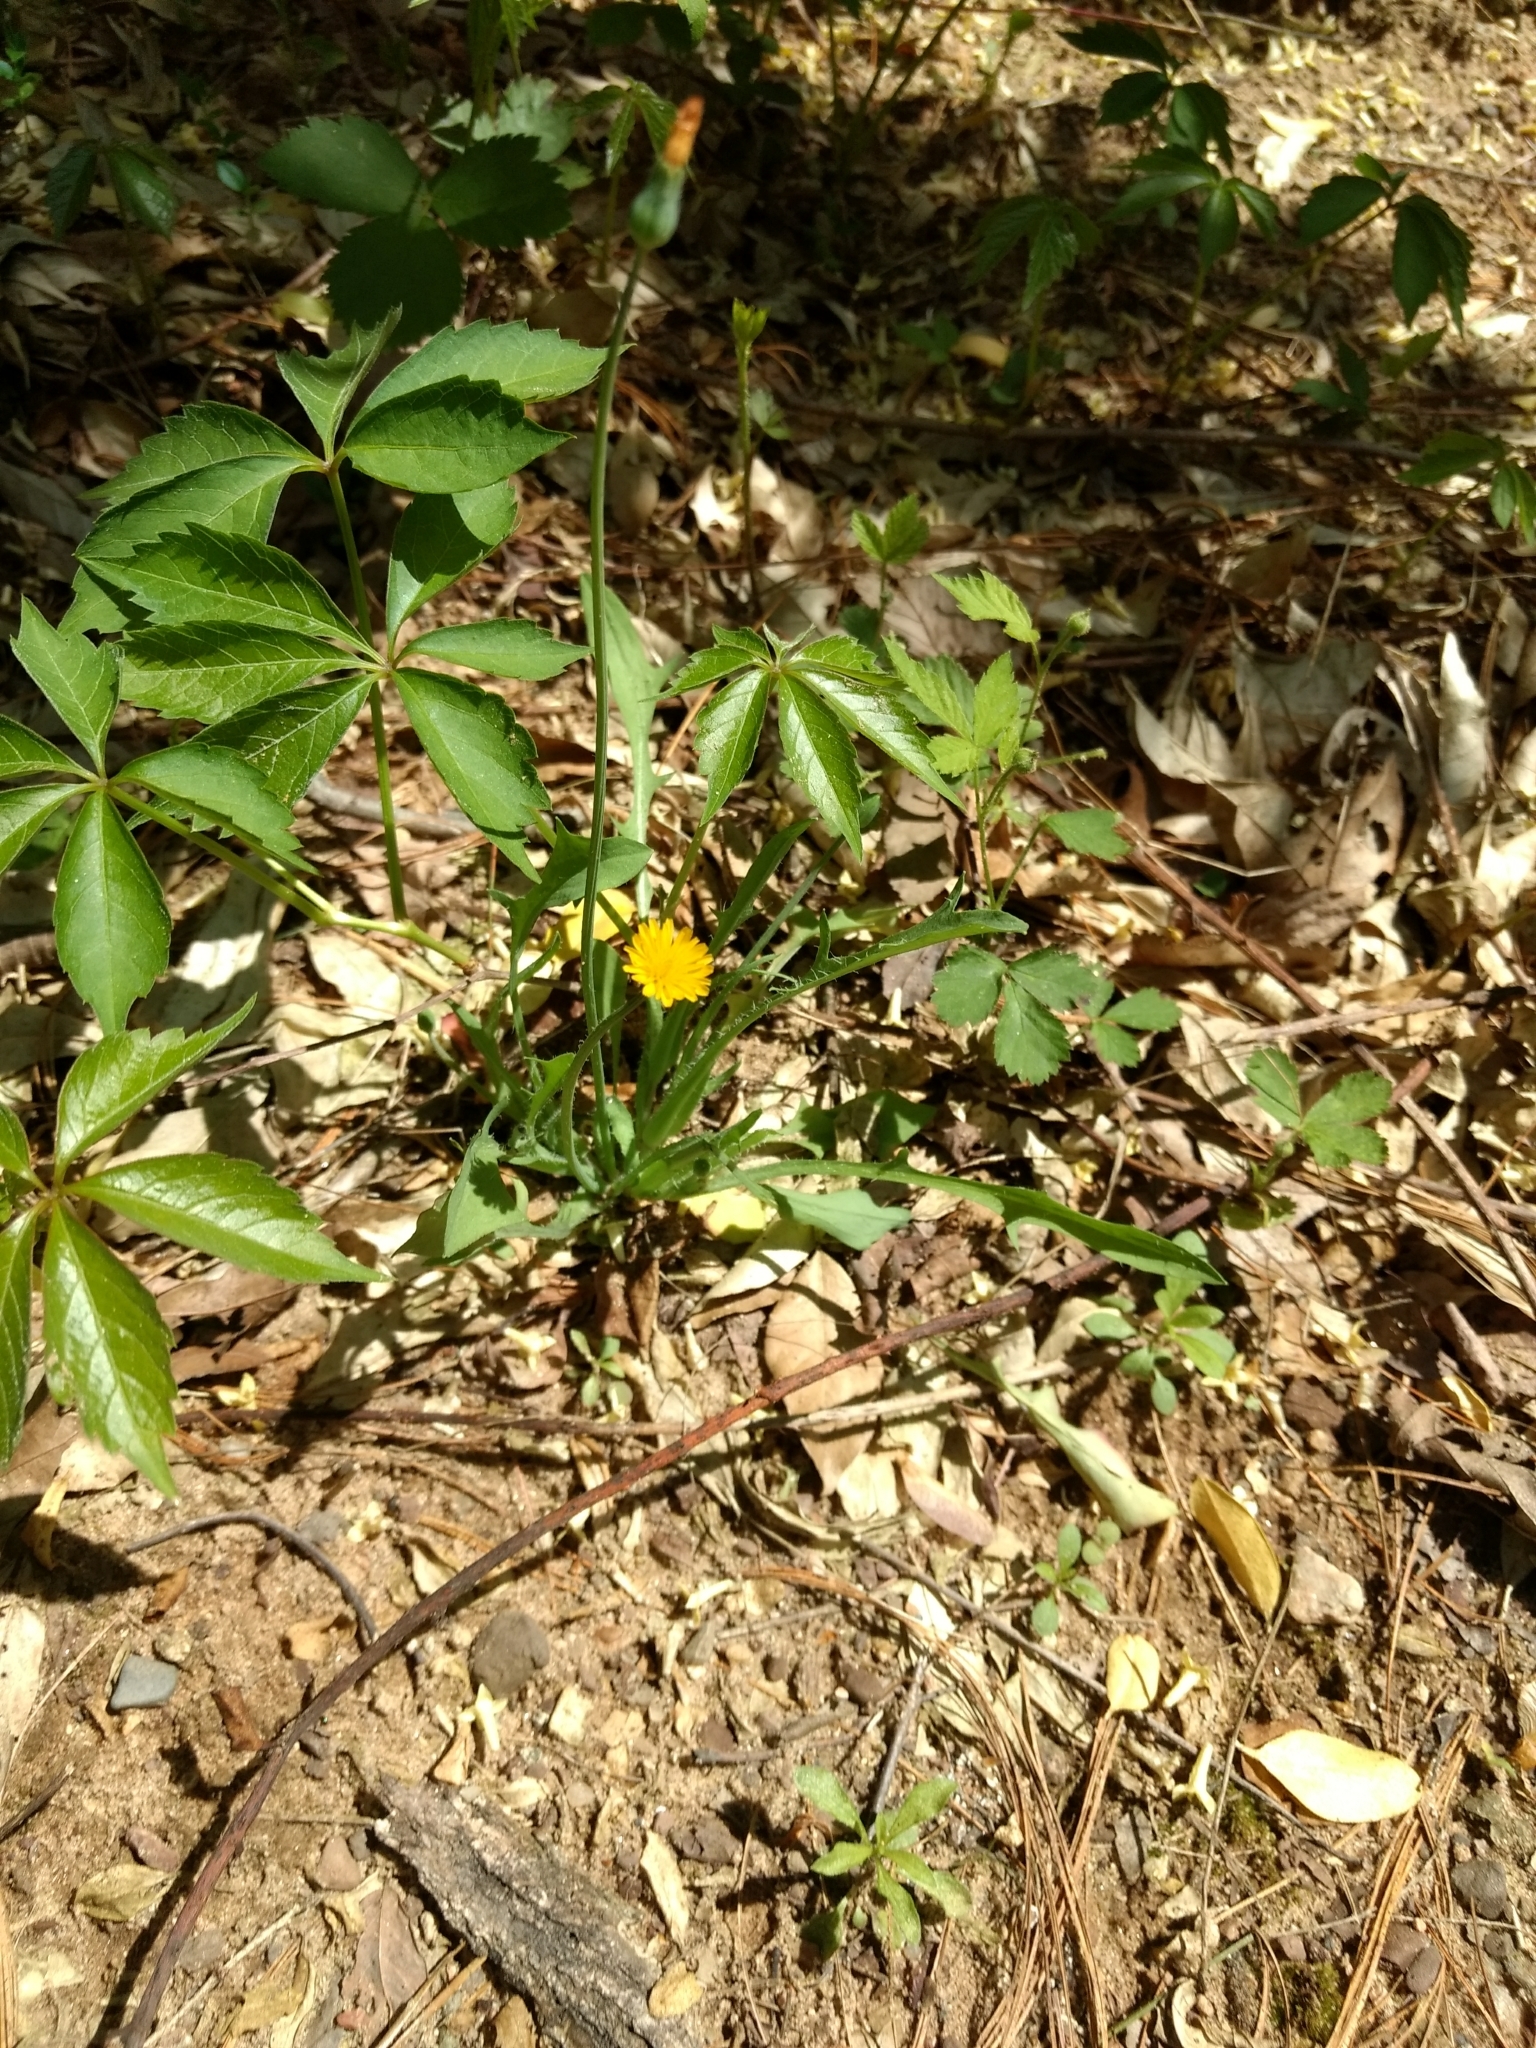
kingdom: Plantae
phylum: Tracheophyta
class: Magnoliopsida
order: Asterales
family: Asteraceae
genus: Krigia
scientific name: Krigia virginica
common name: Virginia dwarf-dandelion
